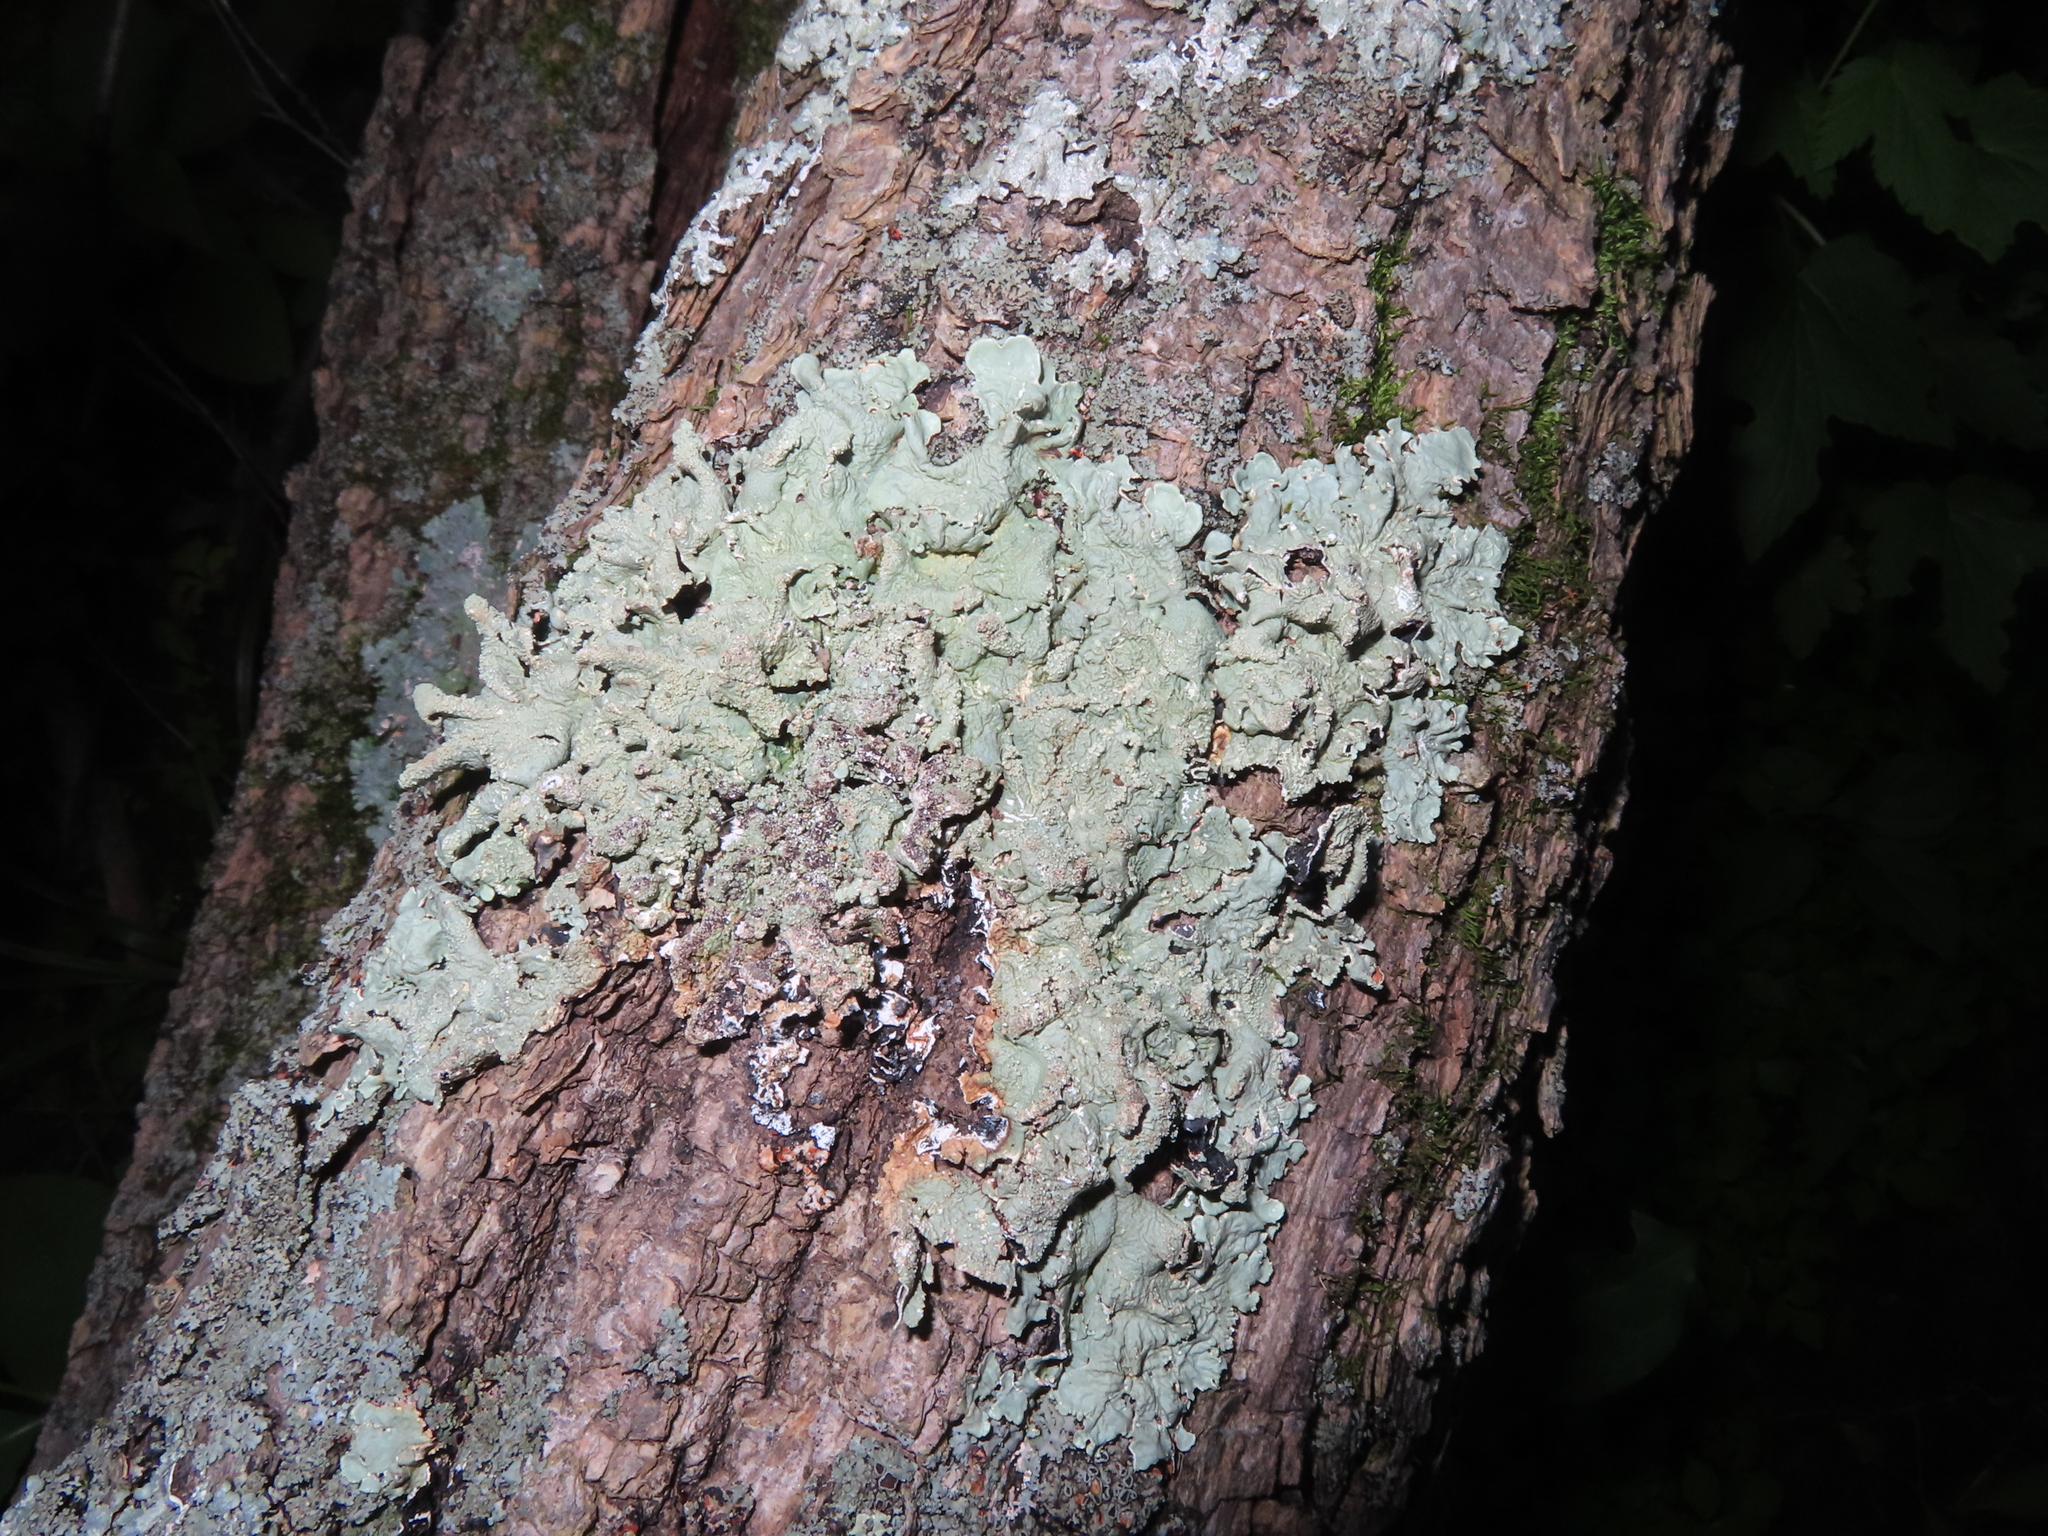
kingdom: Fungi
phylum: Ascomycota
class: Lecanoromycetes
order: Lecanorales
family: Parmeliaceae
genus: Flavoparmelia
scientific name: Flavoparmelia caperata
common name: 40-mile per hour lichen
